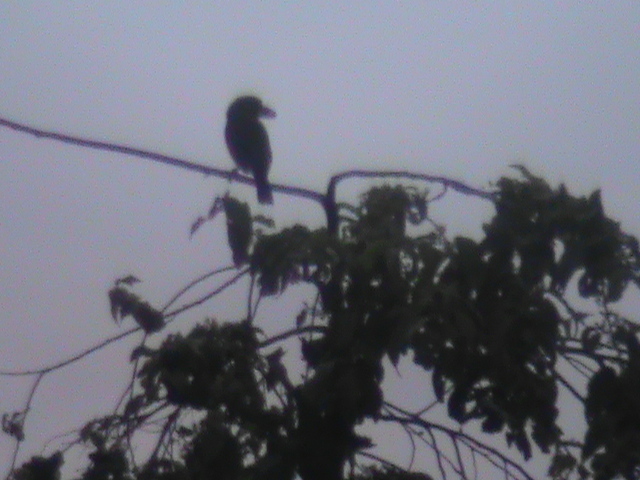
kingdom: Animalia
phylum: Chordata
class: Aves
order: Piciformes
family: Megalaimidae
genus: Psilopogon
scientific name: Psilopogon viridis
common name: White-cheeked barbet
